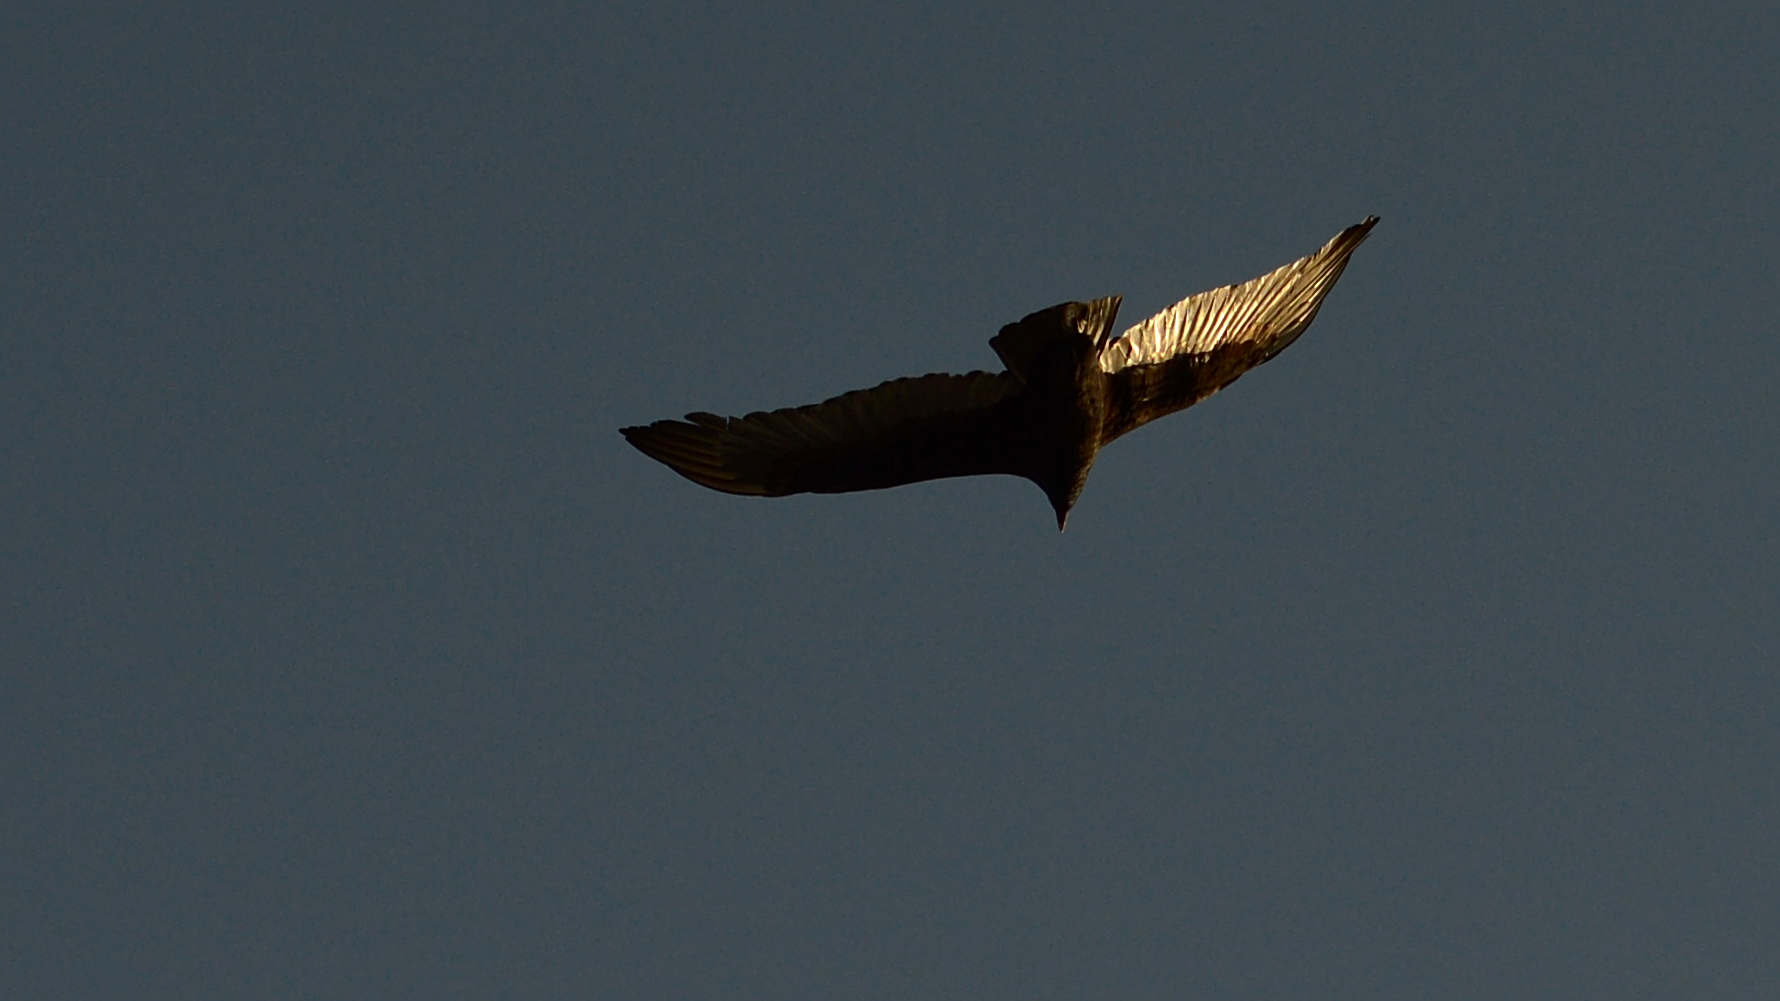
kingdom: Animalia
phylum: Chordata
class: Aves
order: Accipitriformes
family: Cathartidae
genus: Cathartes
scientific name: Cathartes aura
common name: Turkey vulture
